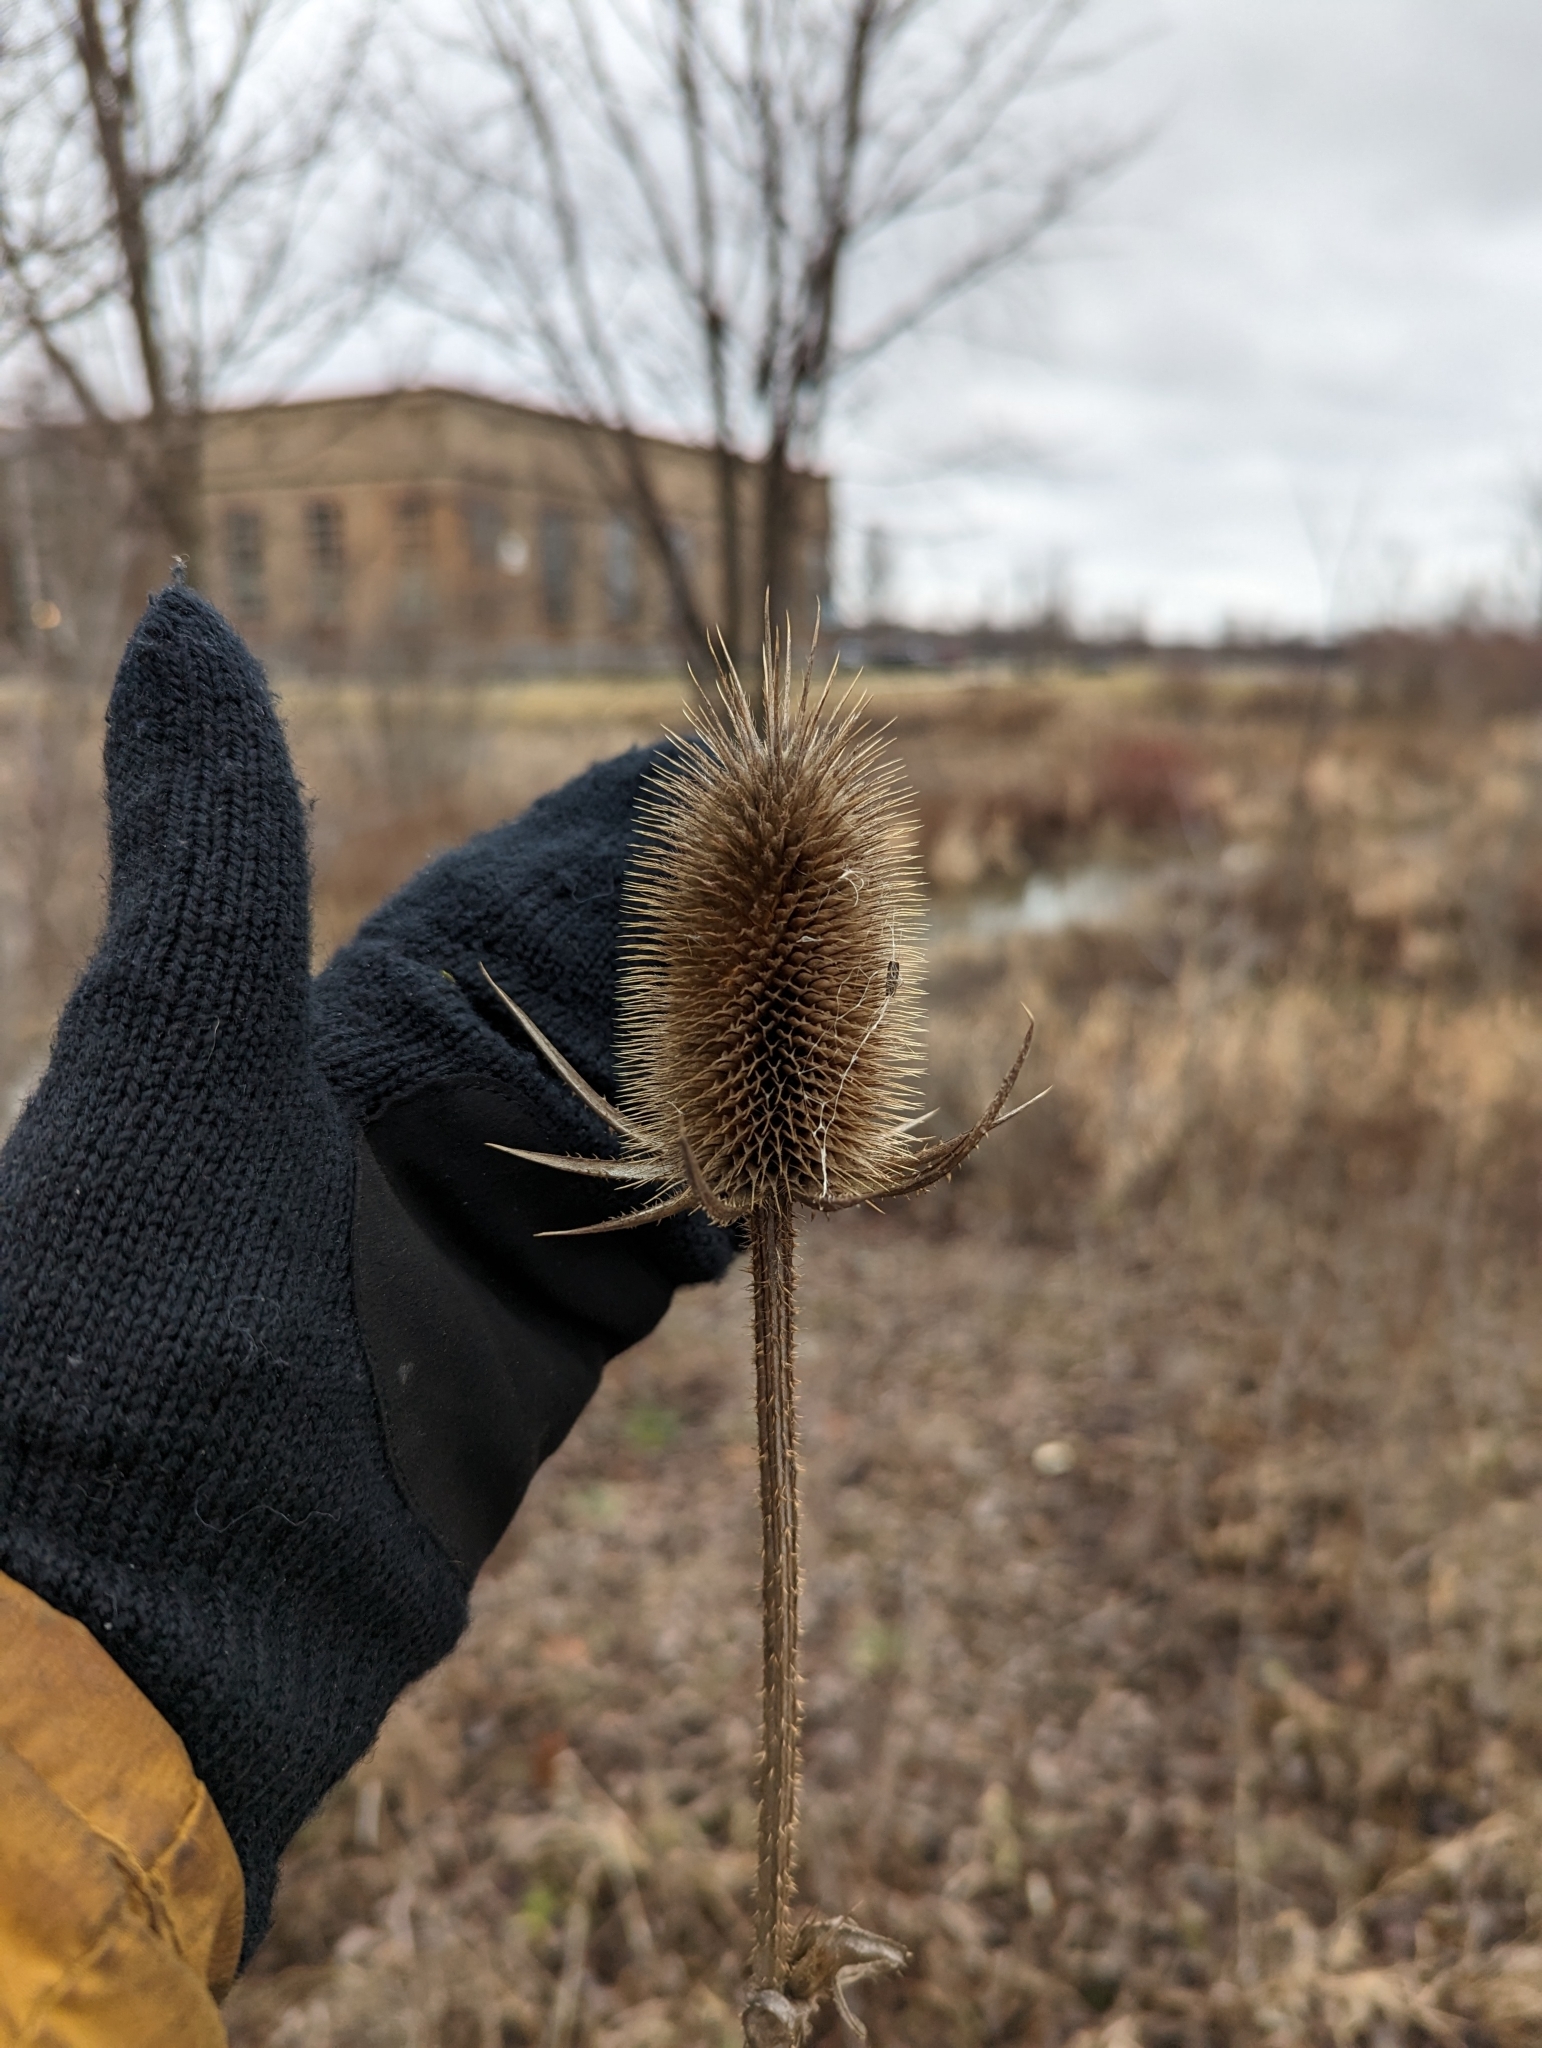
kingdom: Plantae
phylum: Tracheophyta
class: Magnoliopsida
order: Dipsacales
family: Caprifoliaceae
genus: Dipsacus
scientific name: Dipsacus laciniatus
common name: Cut-leaved teasel
